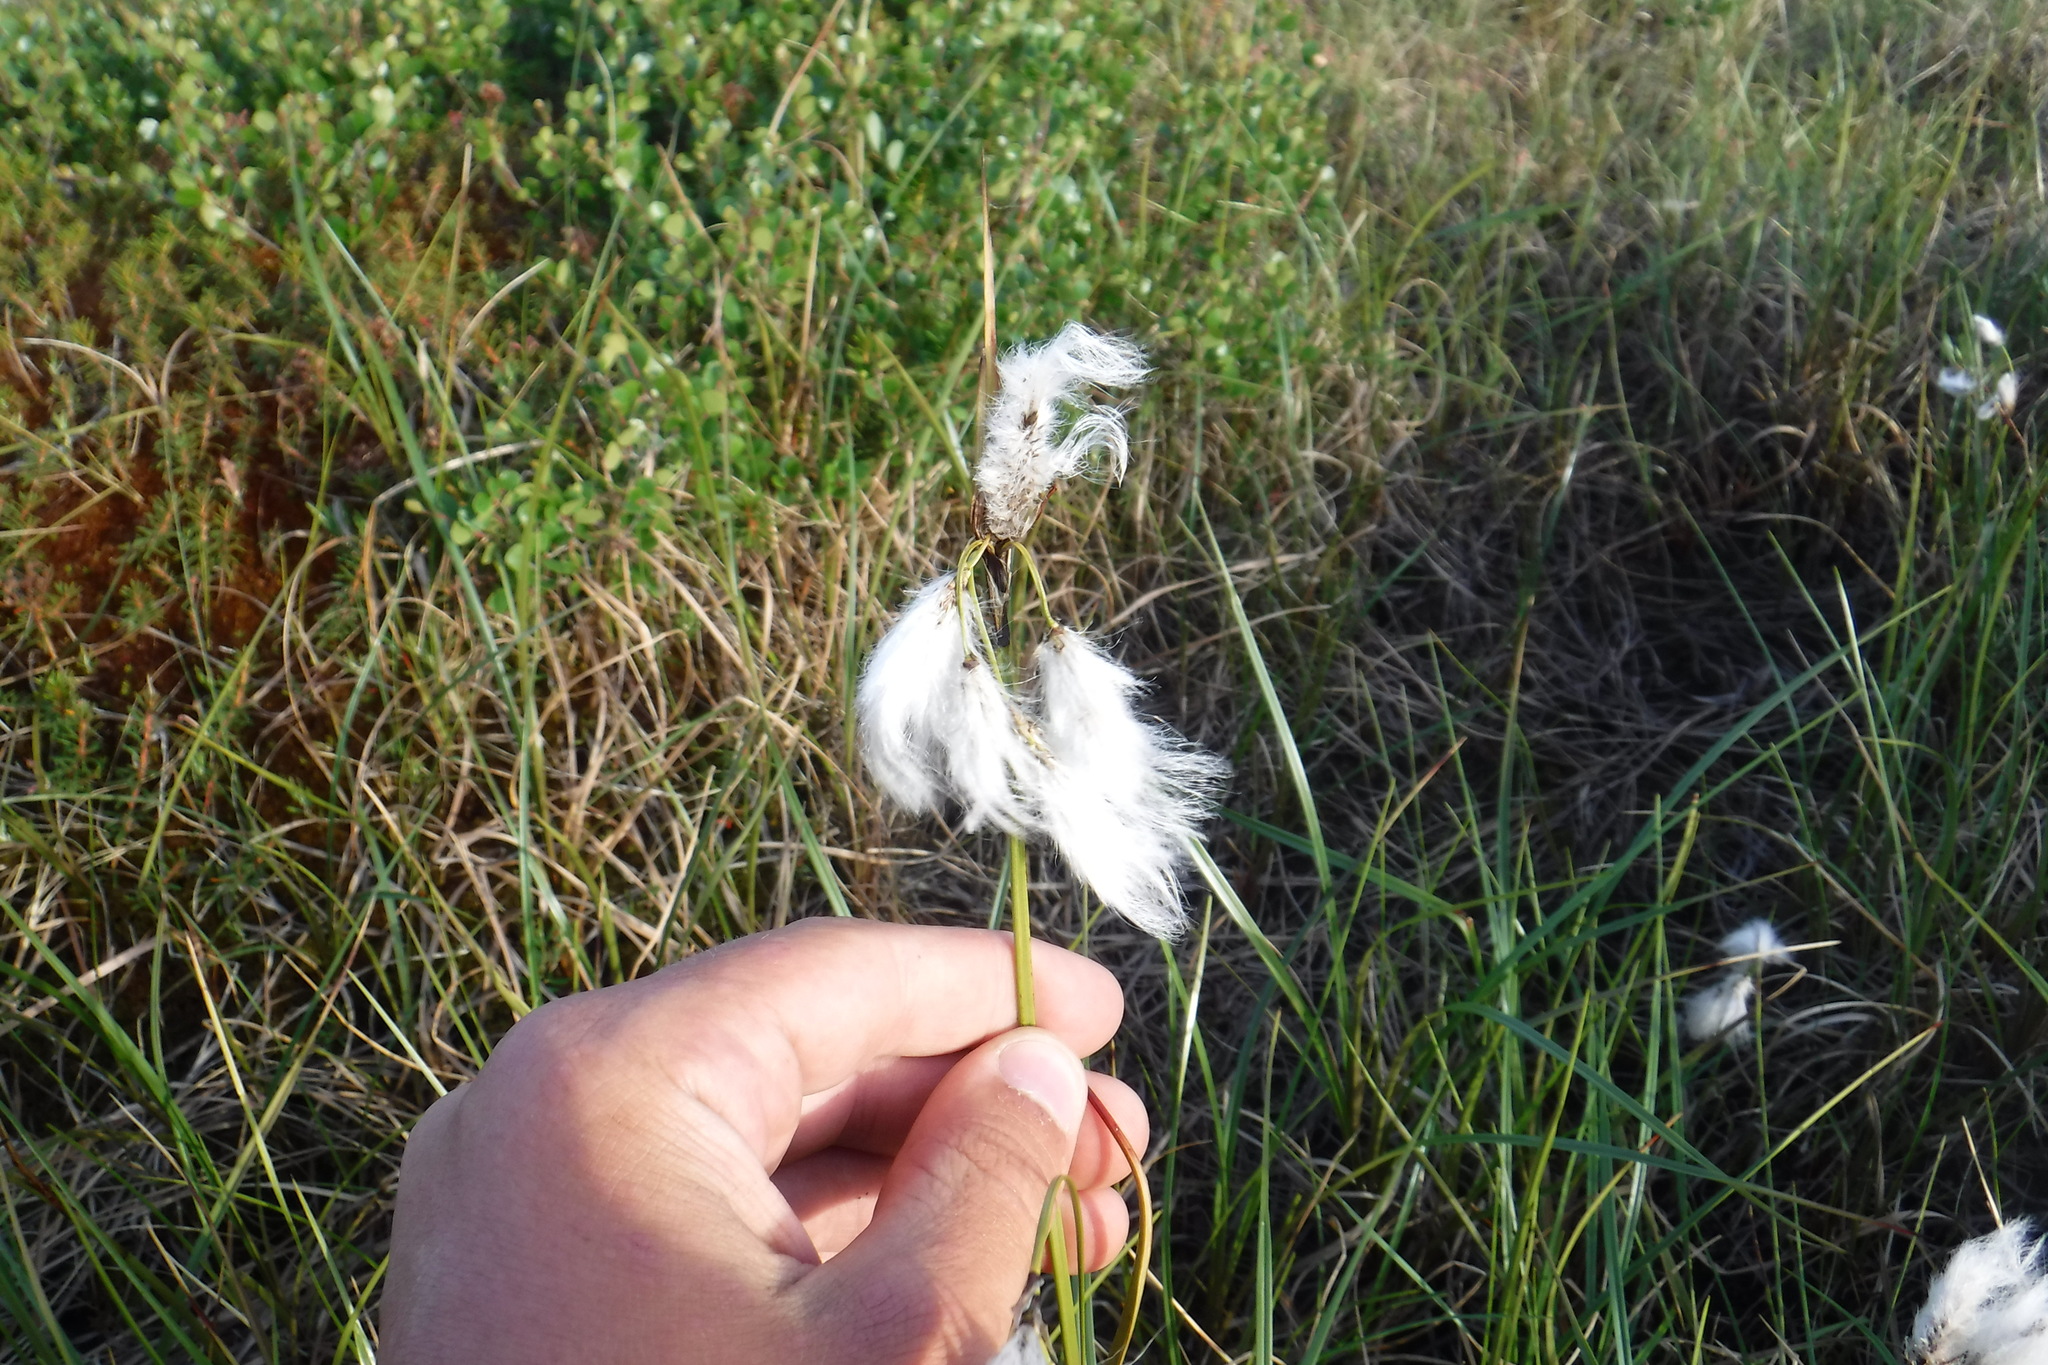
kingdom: Plantae
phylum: Tracheophyta
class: Liliopsida
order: Poales
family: Cyperaceae
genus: Eriophorum
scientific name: Eriophorum angustifolium
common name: Common cottongrass
